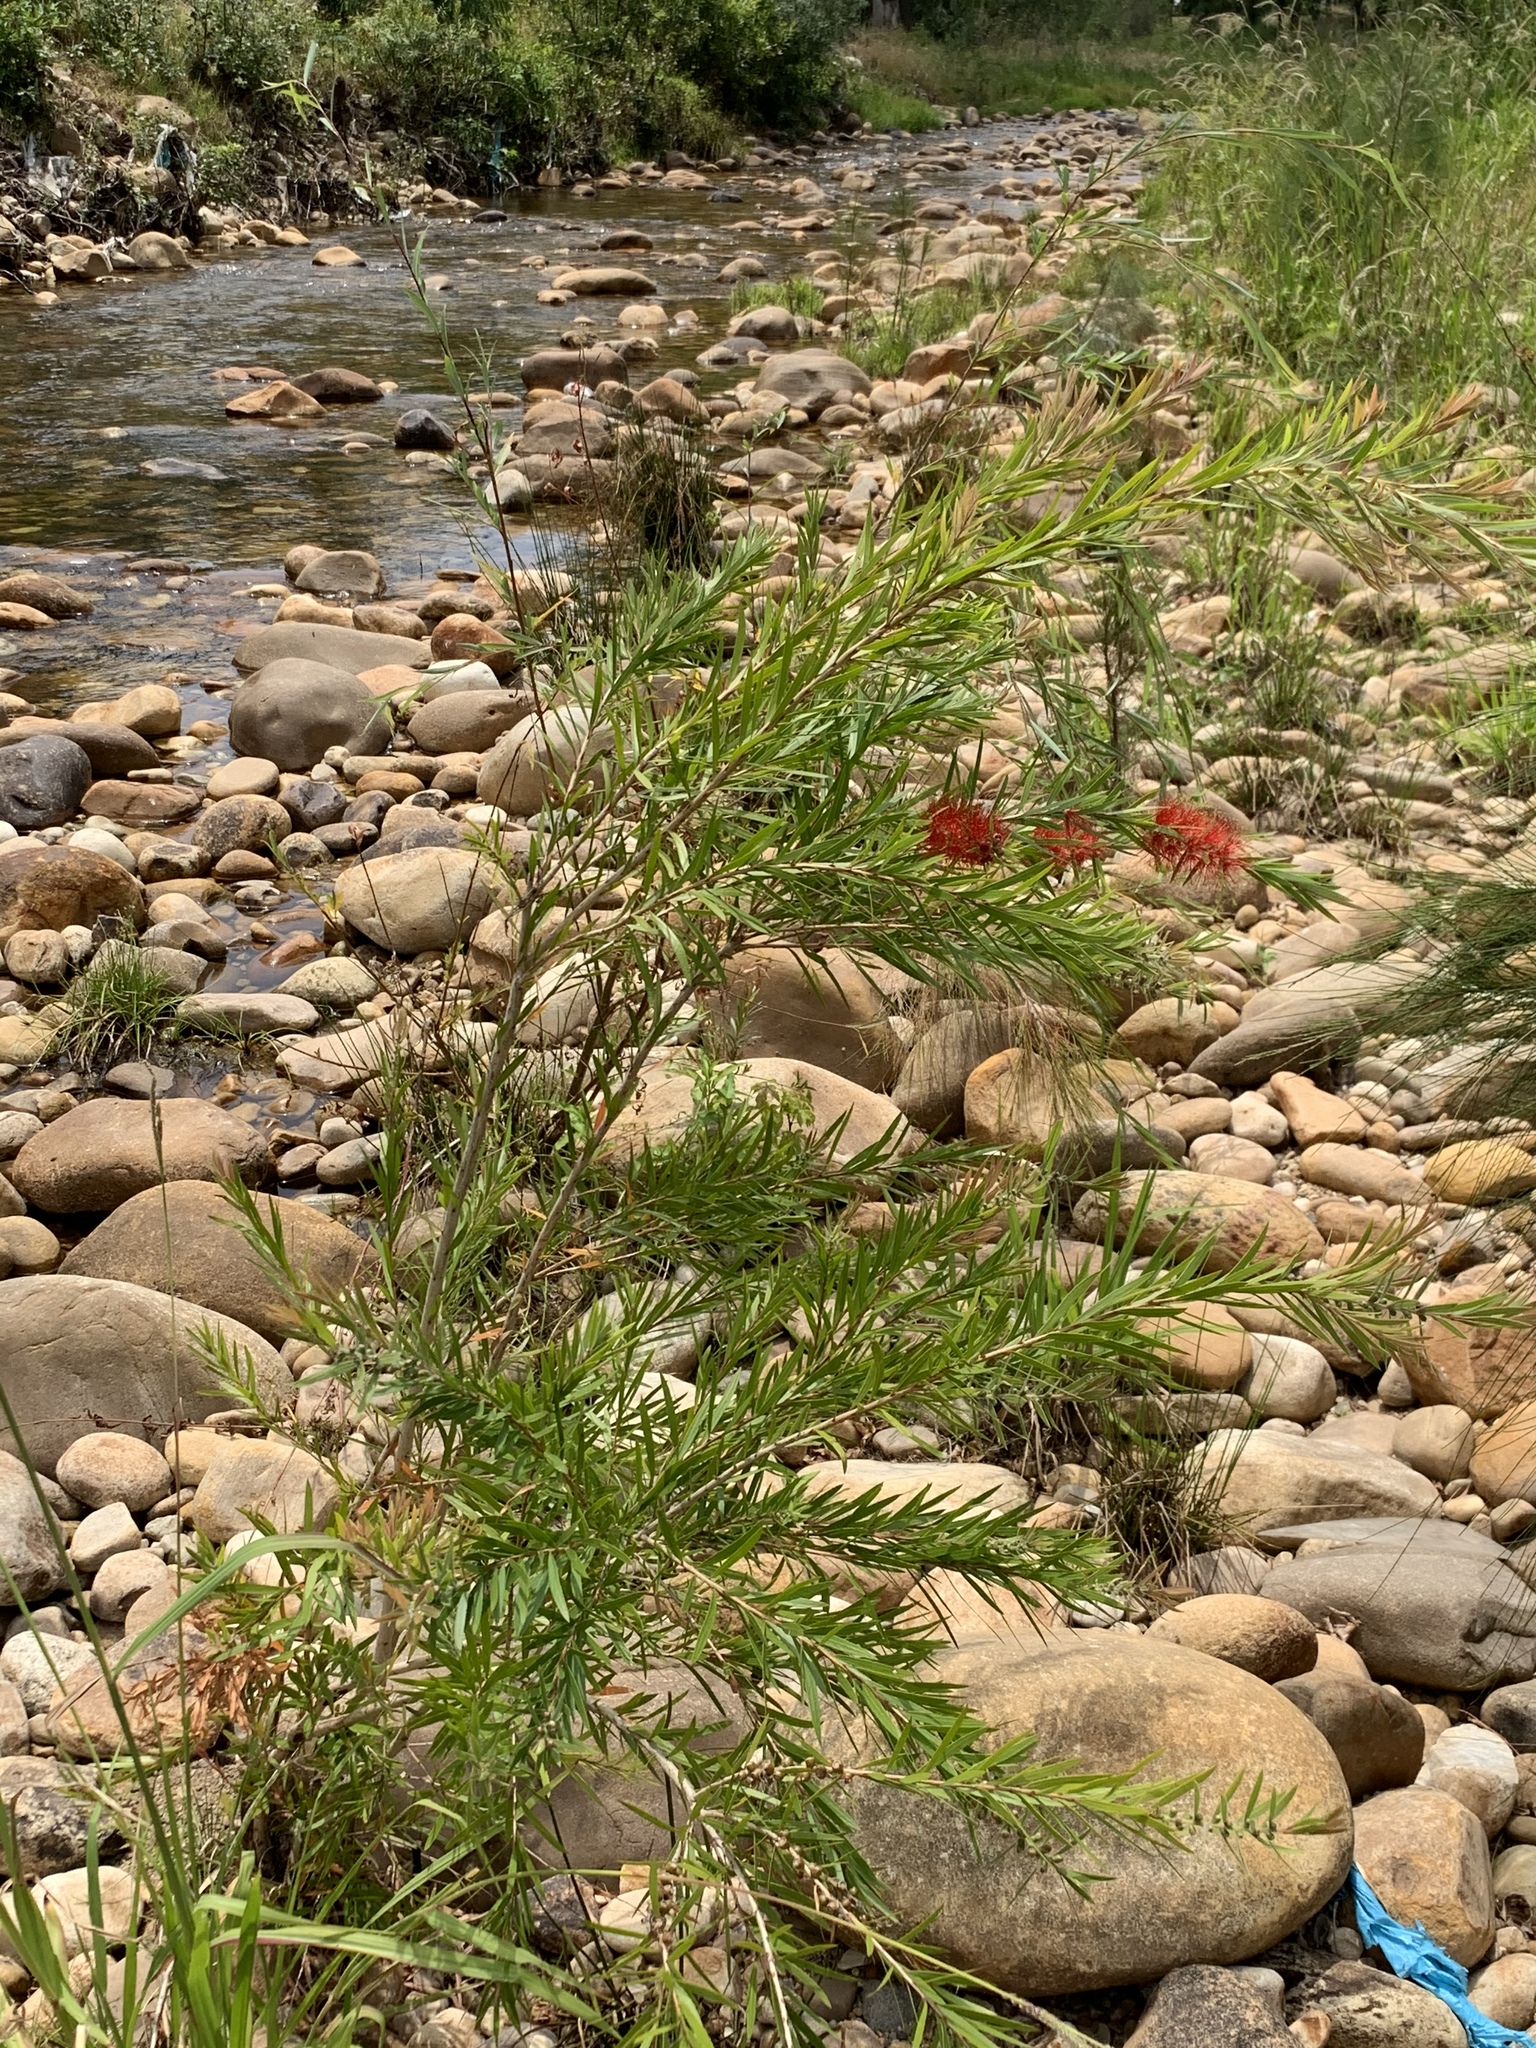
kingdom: Plantae
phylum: Tracheophyta
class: Magnoliopsida
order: Myrtales
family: Myrtaceae
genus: Callistemon
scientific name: Callistemon viminalis
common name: Drooping bottlebrush
